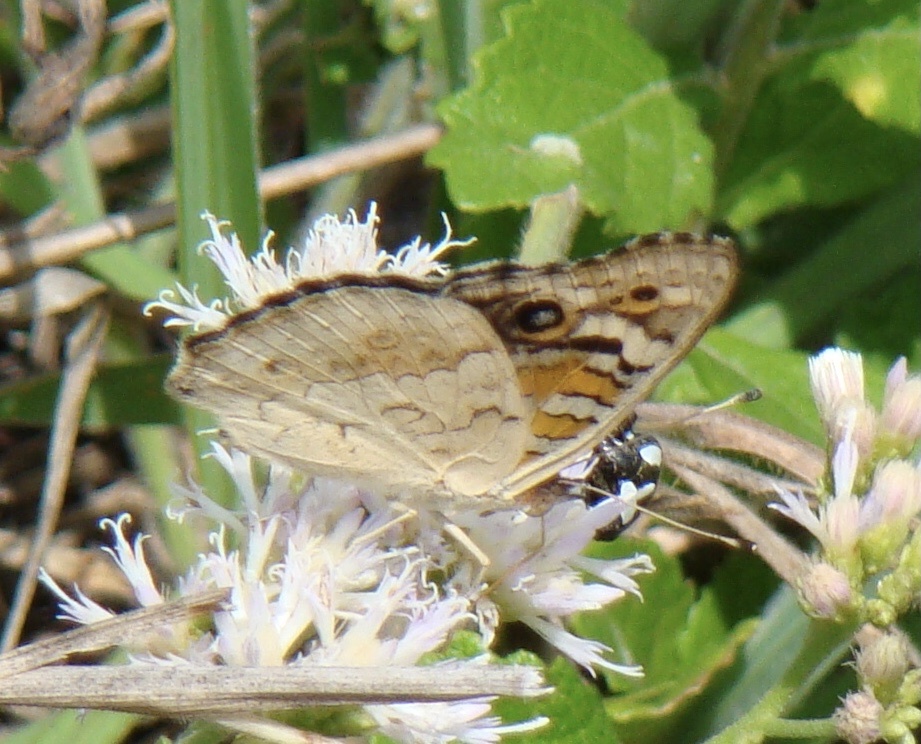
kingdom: Animalia
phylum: Arthropoda
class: Insecta
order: Lepidoptera
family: Nymphalidae
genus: Junonia
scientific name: Junonia orithya
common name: Blue pansy
